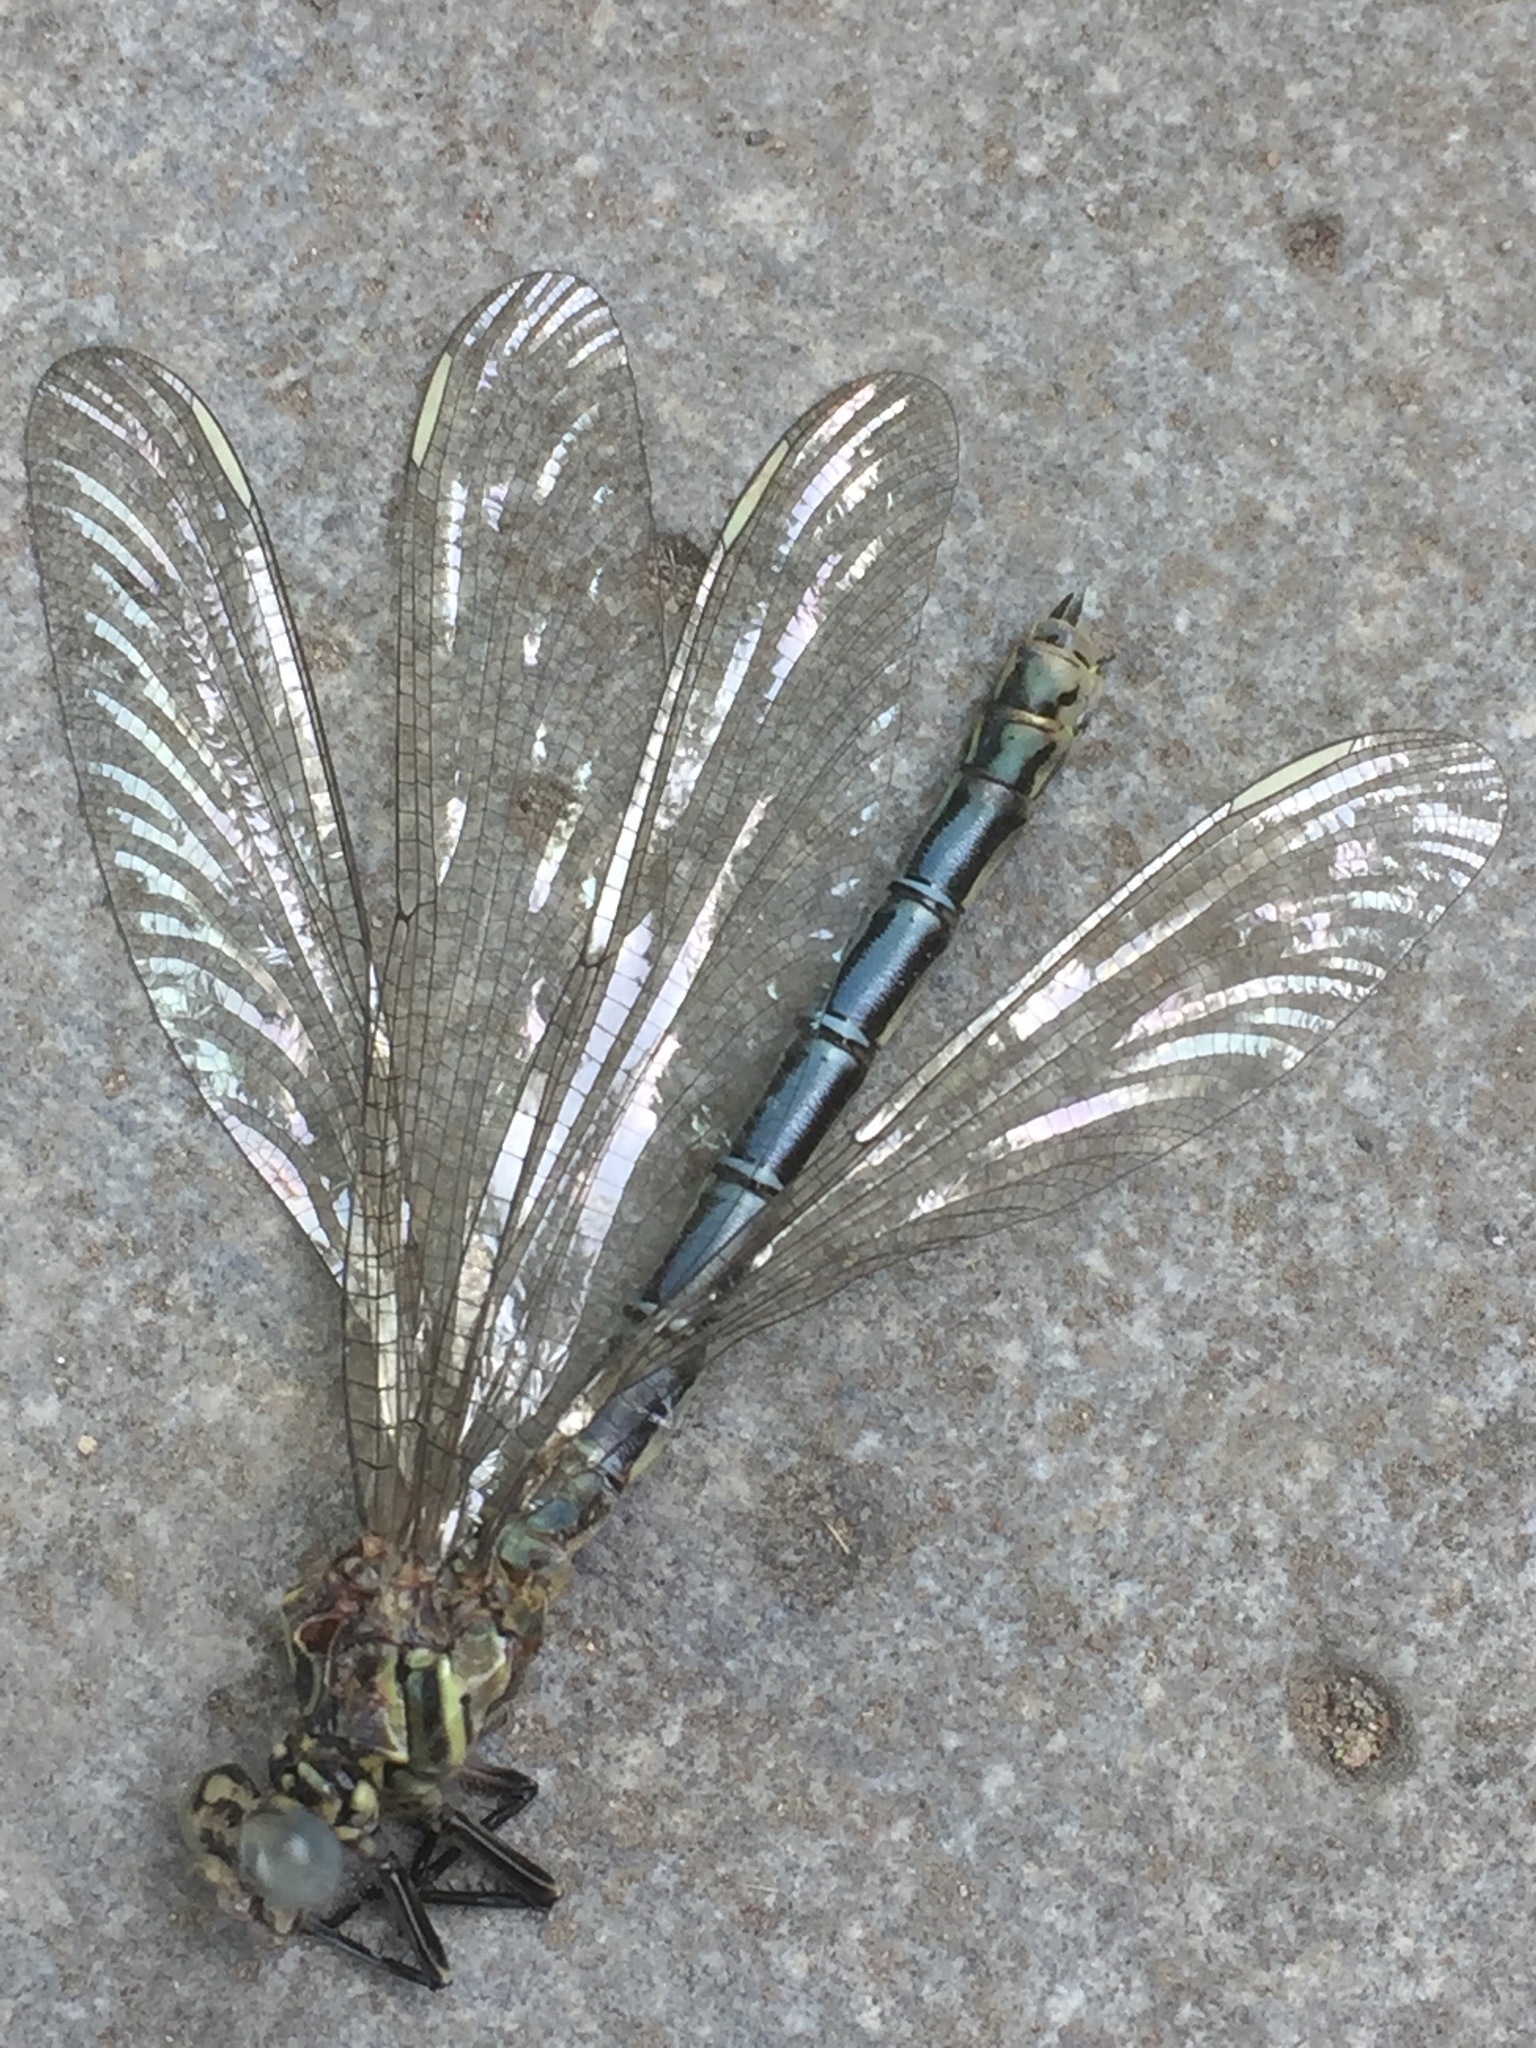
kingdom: Animalia
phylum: Arthropoda
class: Insecta
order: Odonata
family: Euphaeidae
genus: Epallage
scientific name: Epallage fatime
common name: Odalisque
